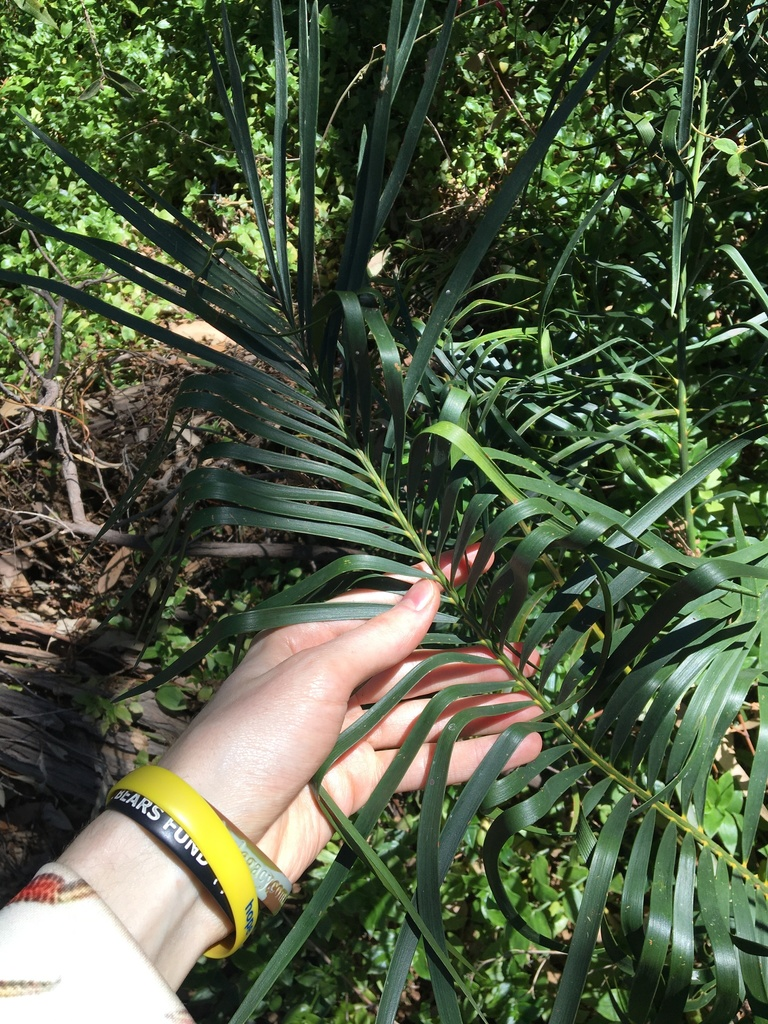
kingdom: Plantae
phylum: Tracheophyta
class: Cycadopsida
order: Cycadales
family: Zamiaceae
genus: Macrozamia
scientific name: Macrozamia spiralis
